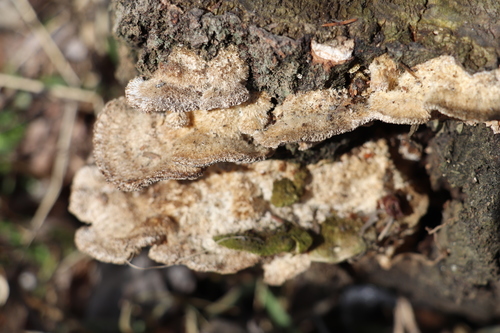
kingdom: Fungi
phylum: Basidiomycota
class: Agaricomycetes
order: Polyporales
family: Polyporaceae
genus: Trametes
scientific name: Trametes trogii
